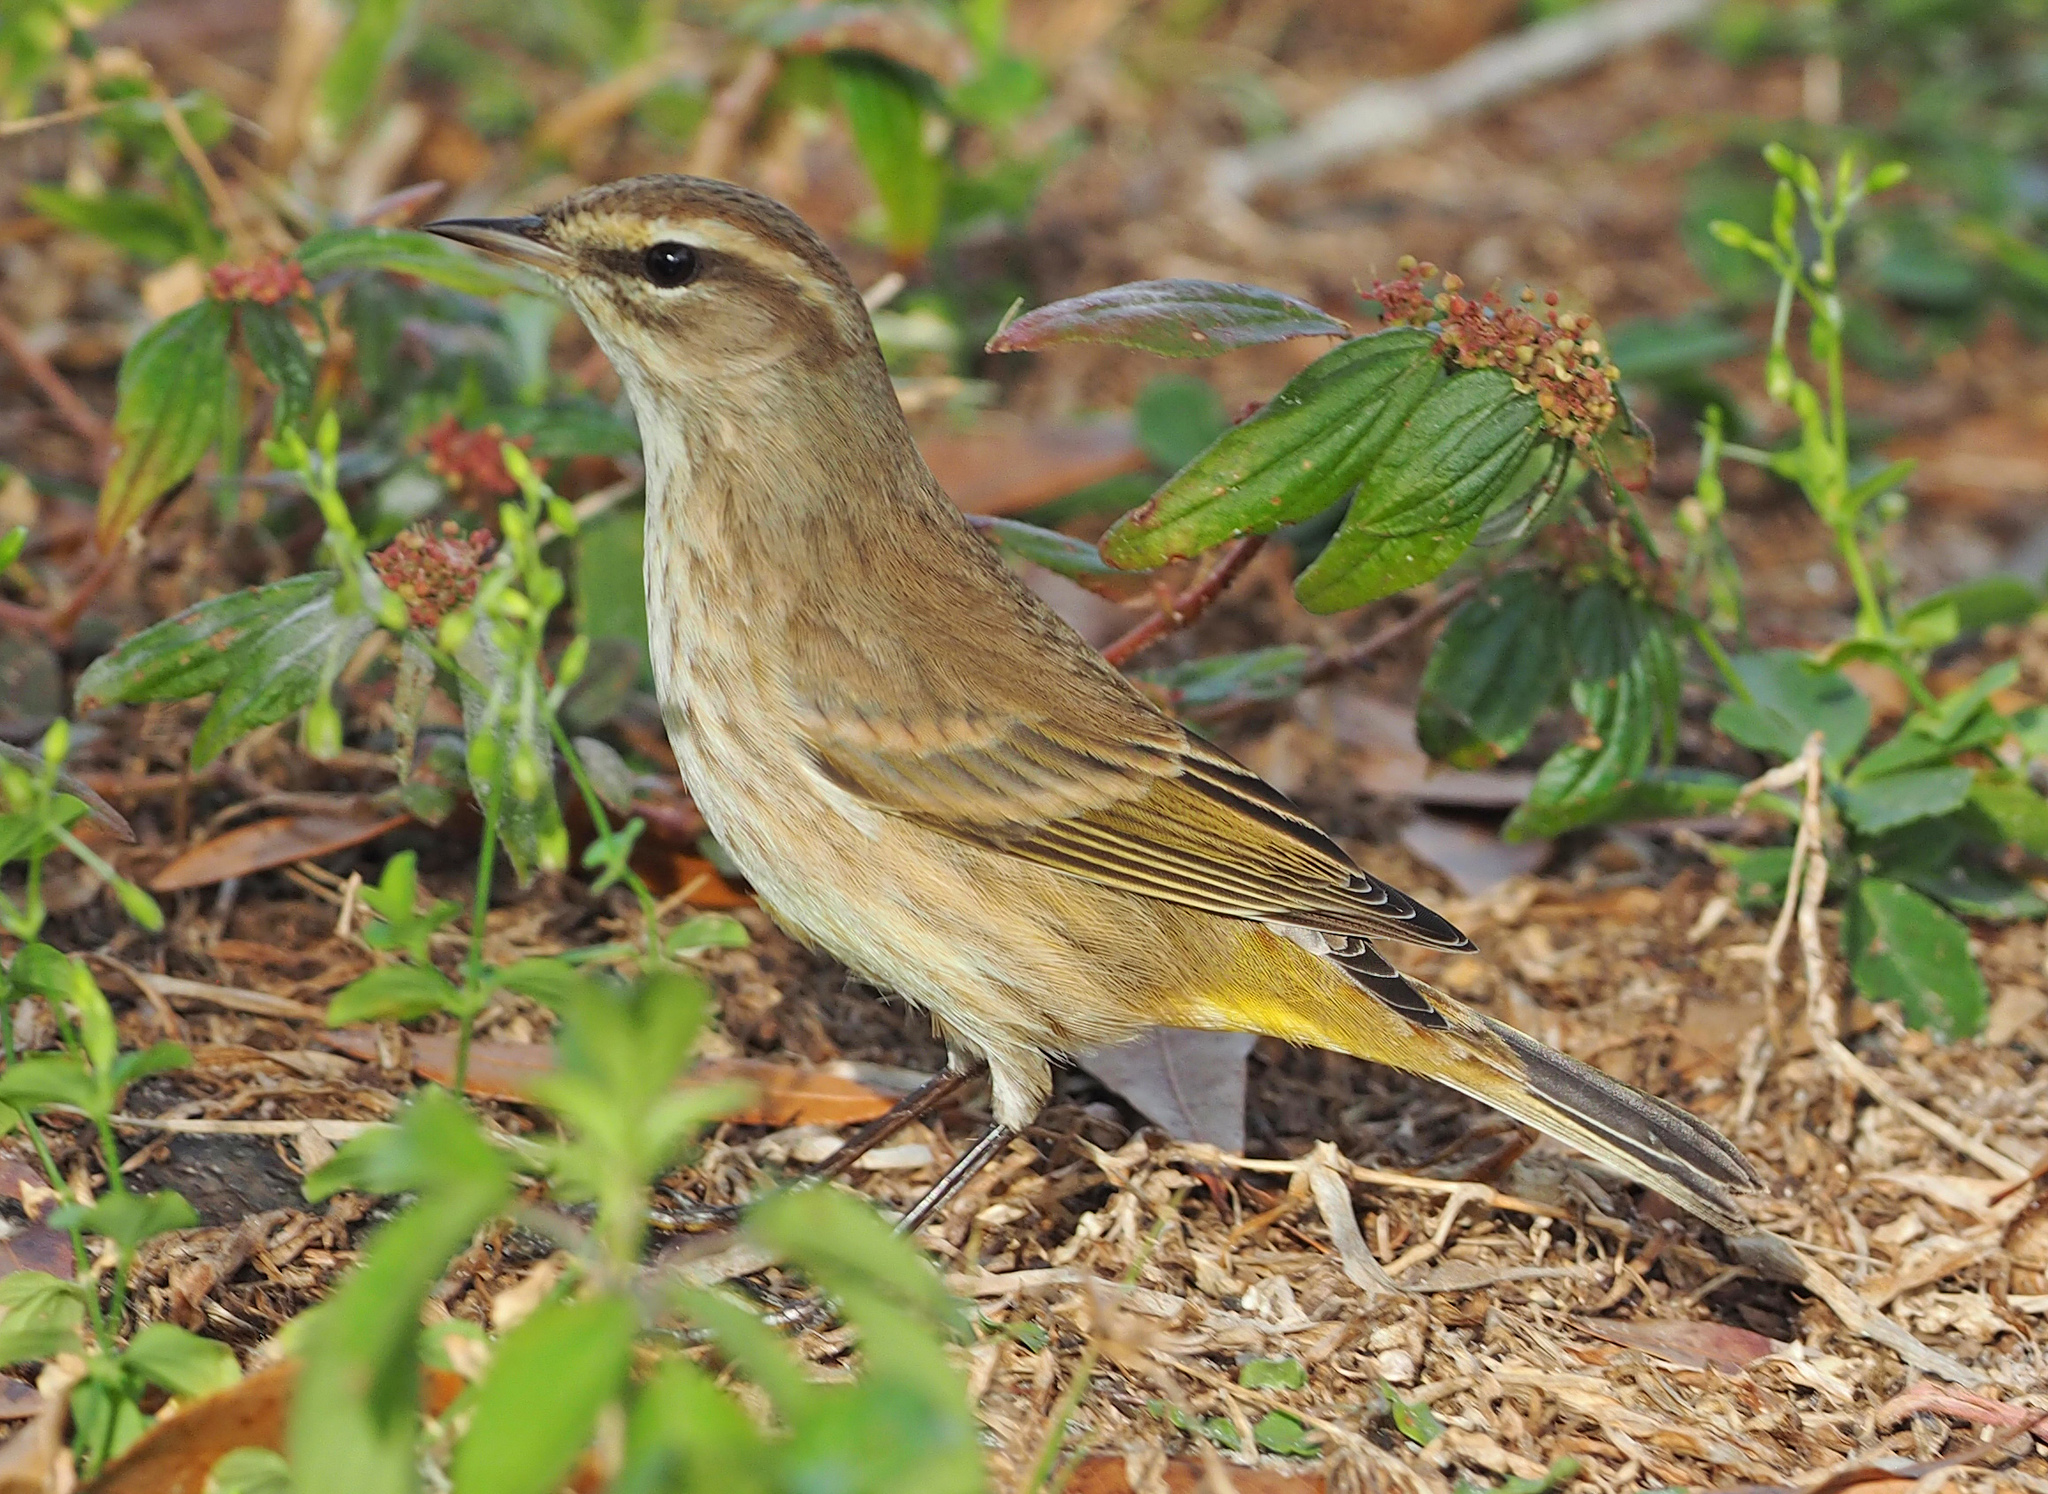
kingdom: Animalia
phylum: Chordata
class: Aves
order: Passeriformes
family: Parulidae
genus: Setophaga
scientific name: Setophaga palmarum
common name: Palm warbler
